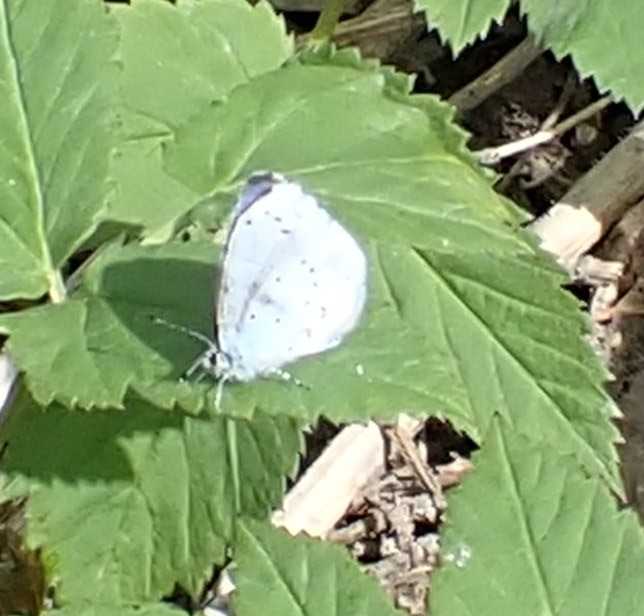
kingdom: Animalia
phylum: Arthropoda
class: Insecta
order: Lepidoptera
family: Lycaenidae
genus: Celastrina
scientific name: Celastrina argiolus
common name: Holly blue
